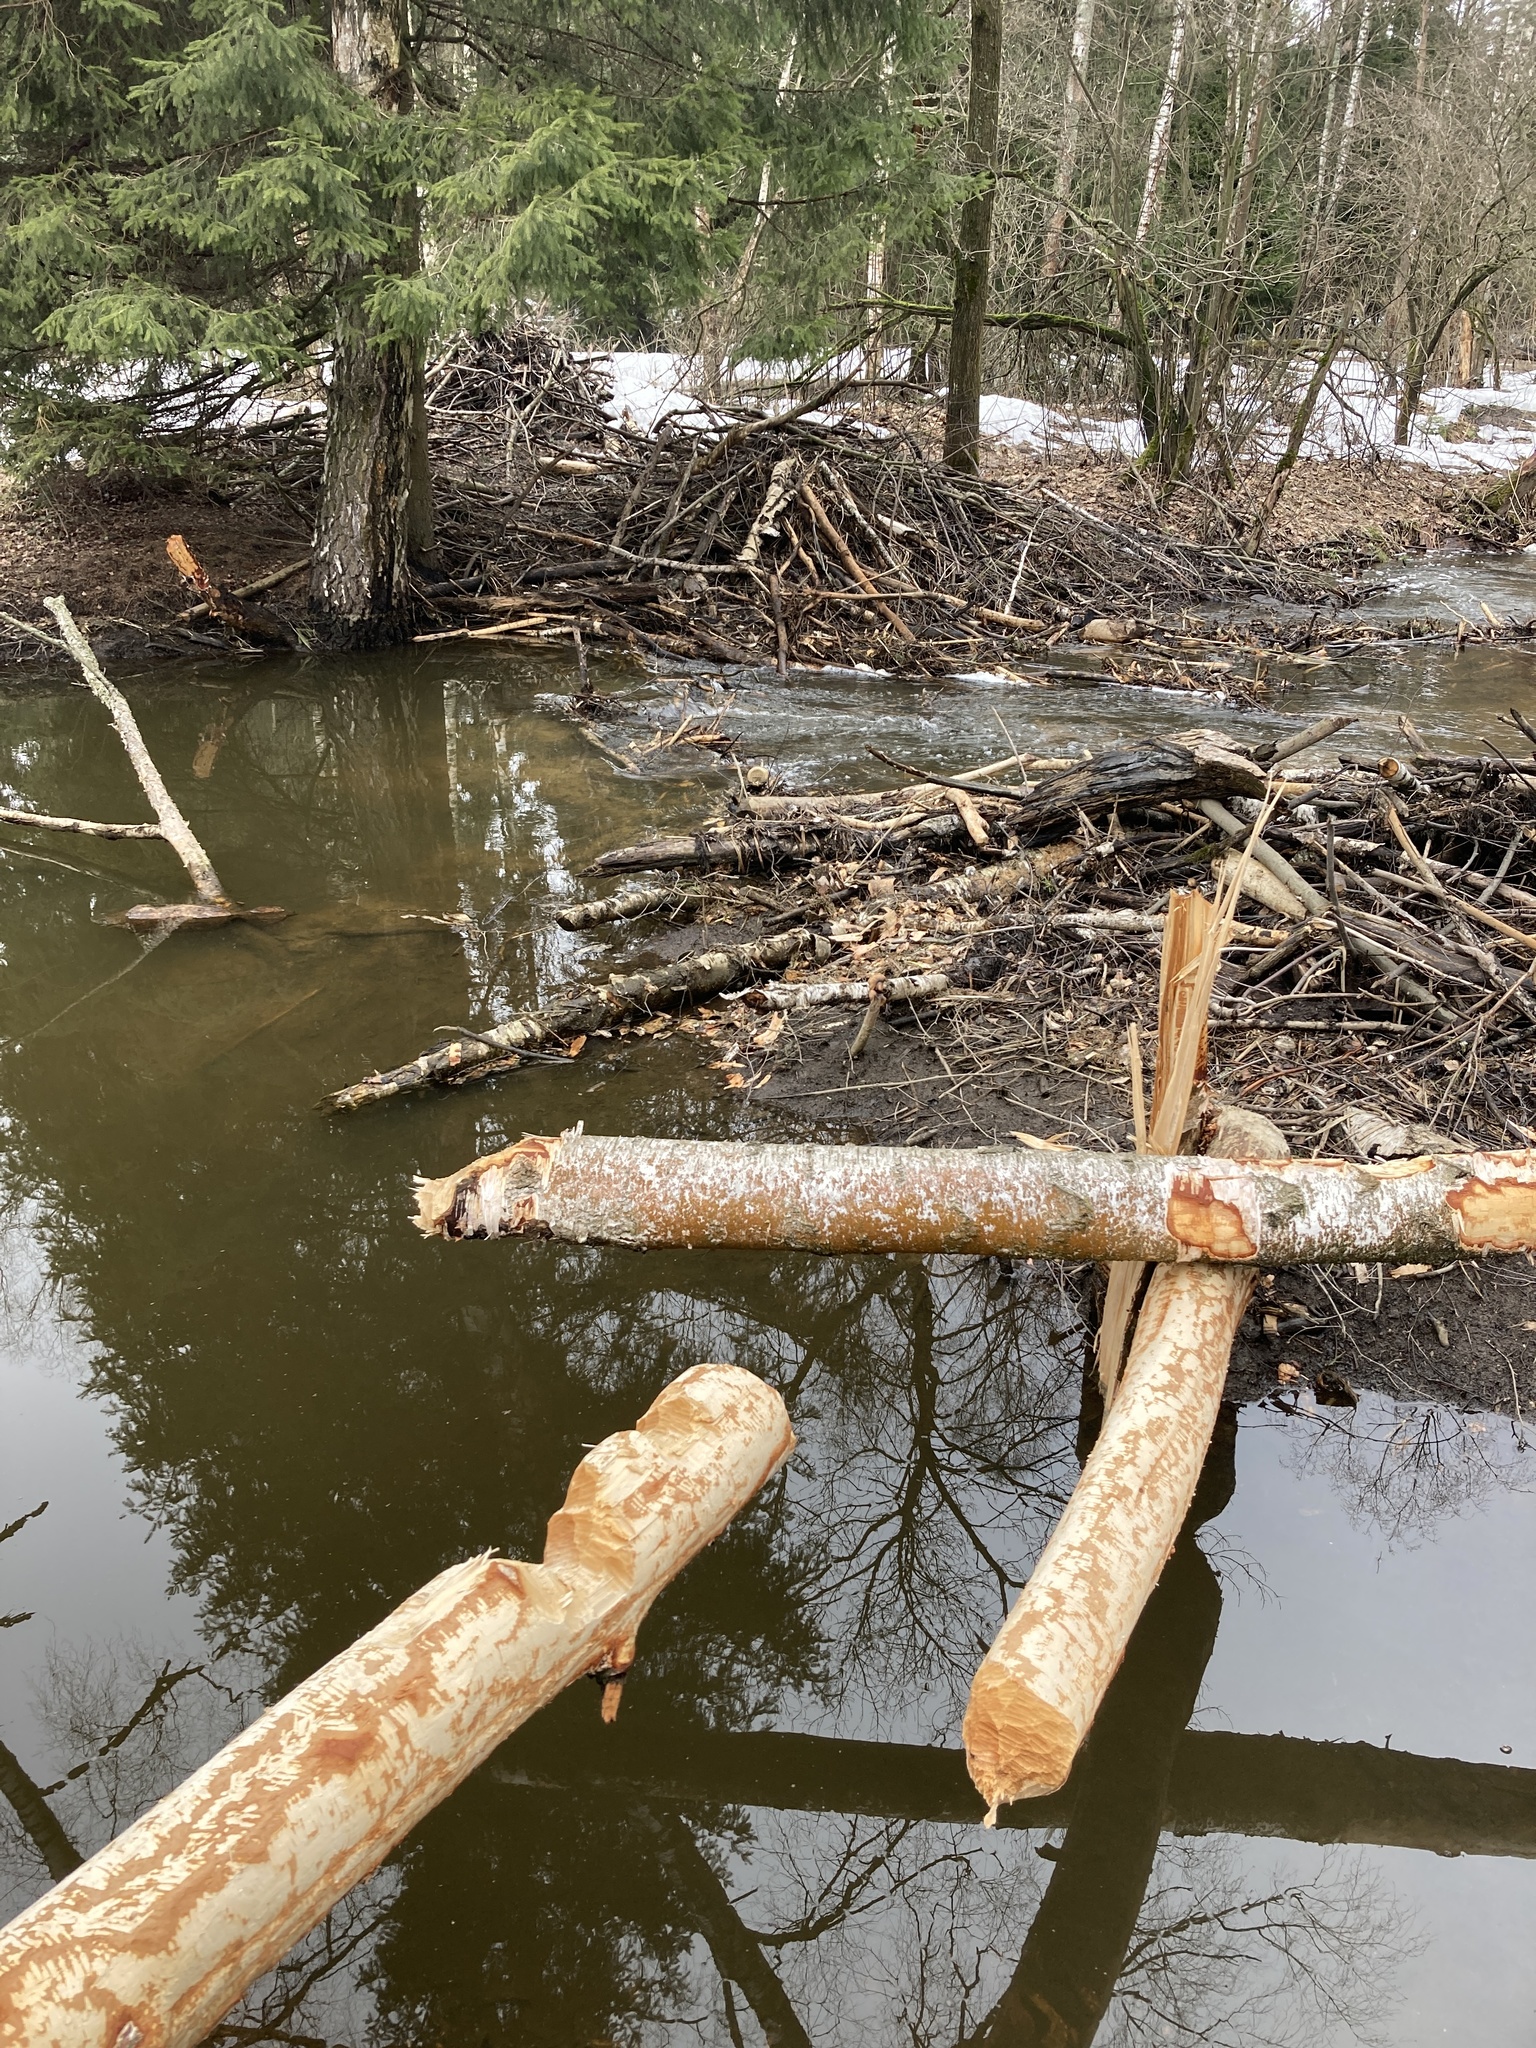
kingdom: Animalia
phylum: Chordata
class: Mammalia
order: Rodentia
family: Castoridae
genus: Castor
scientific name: Castor fiber
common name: Eurasian beaver
